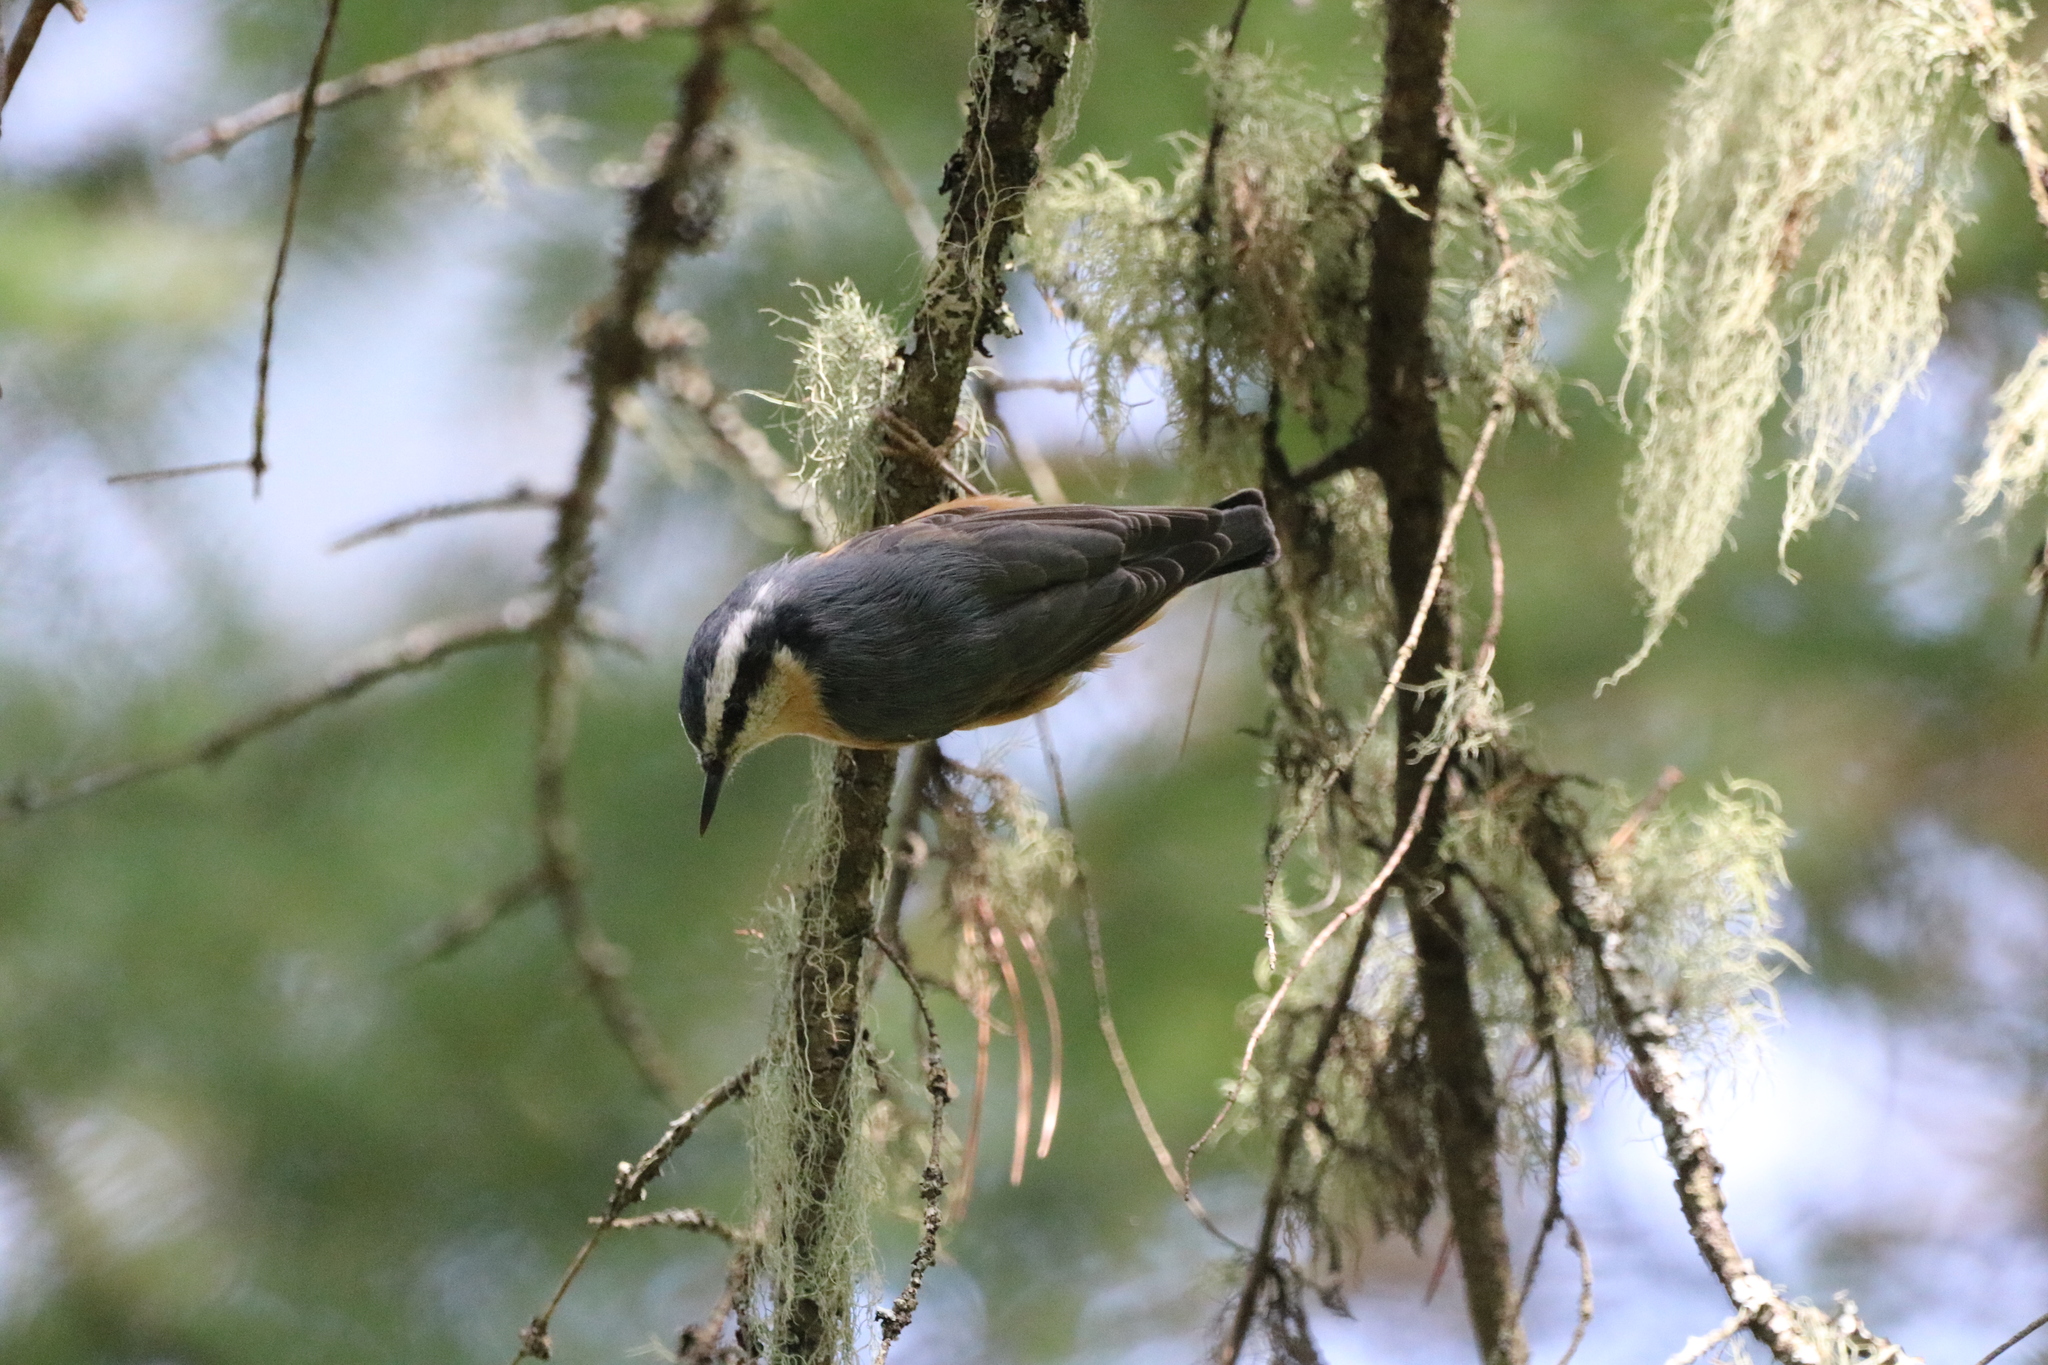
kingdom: Animalia
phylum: Chordata
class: Aves
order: Passeriformes
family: Sittidae
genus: Sitta
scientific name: Sitta canadensis
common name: Red-breasted nuthatch
